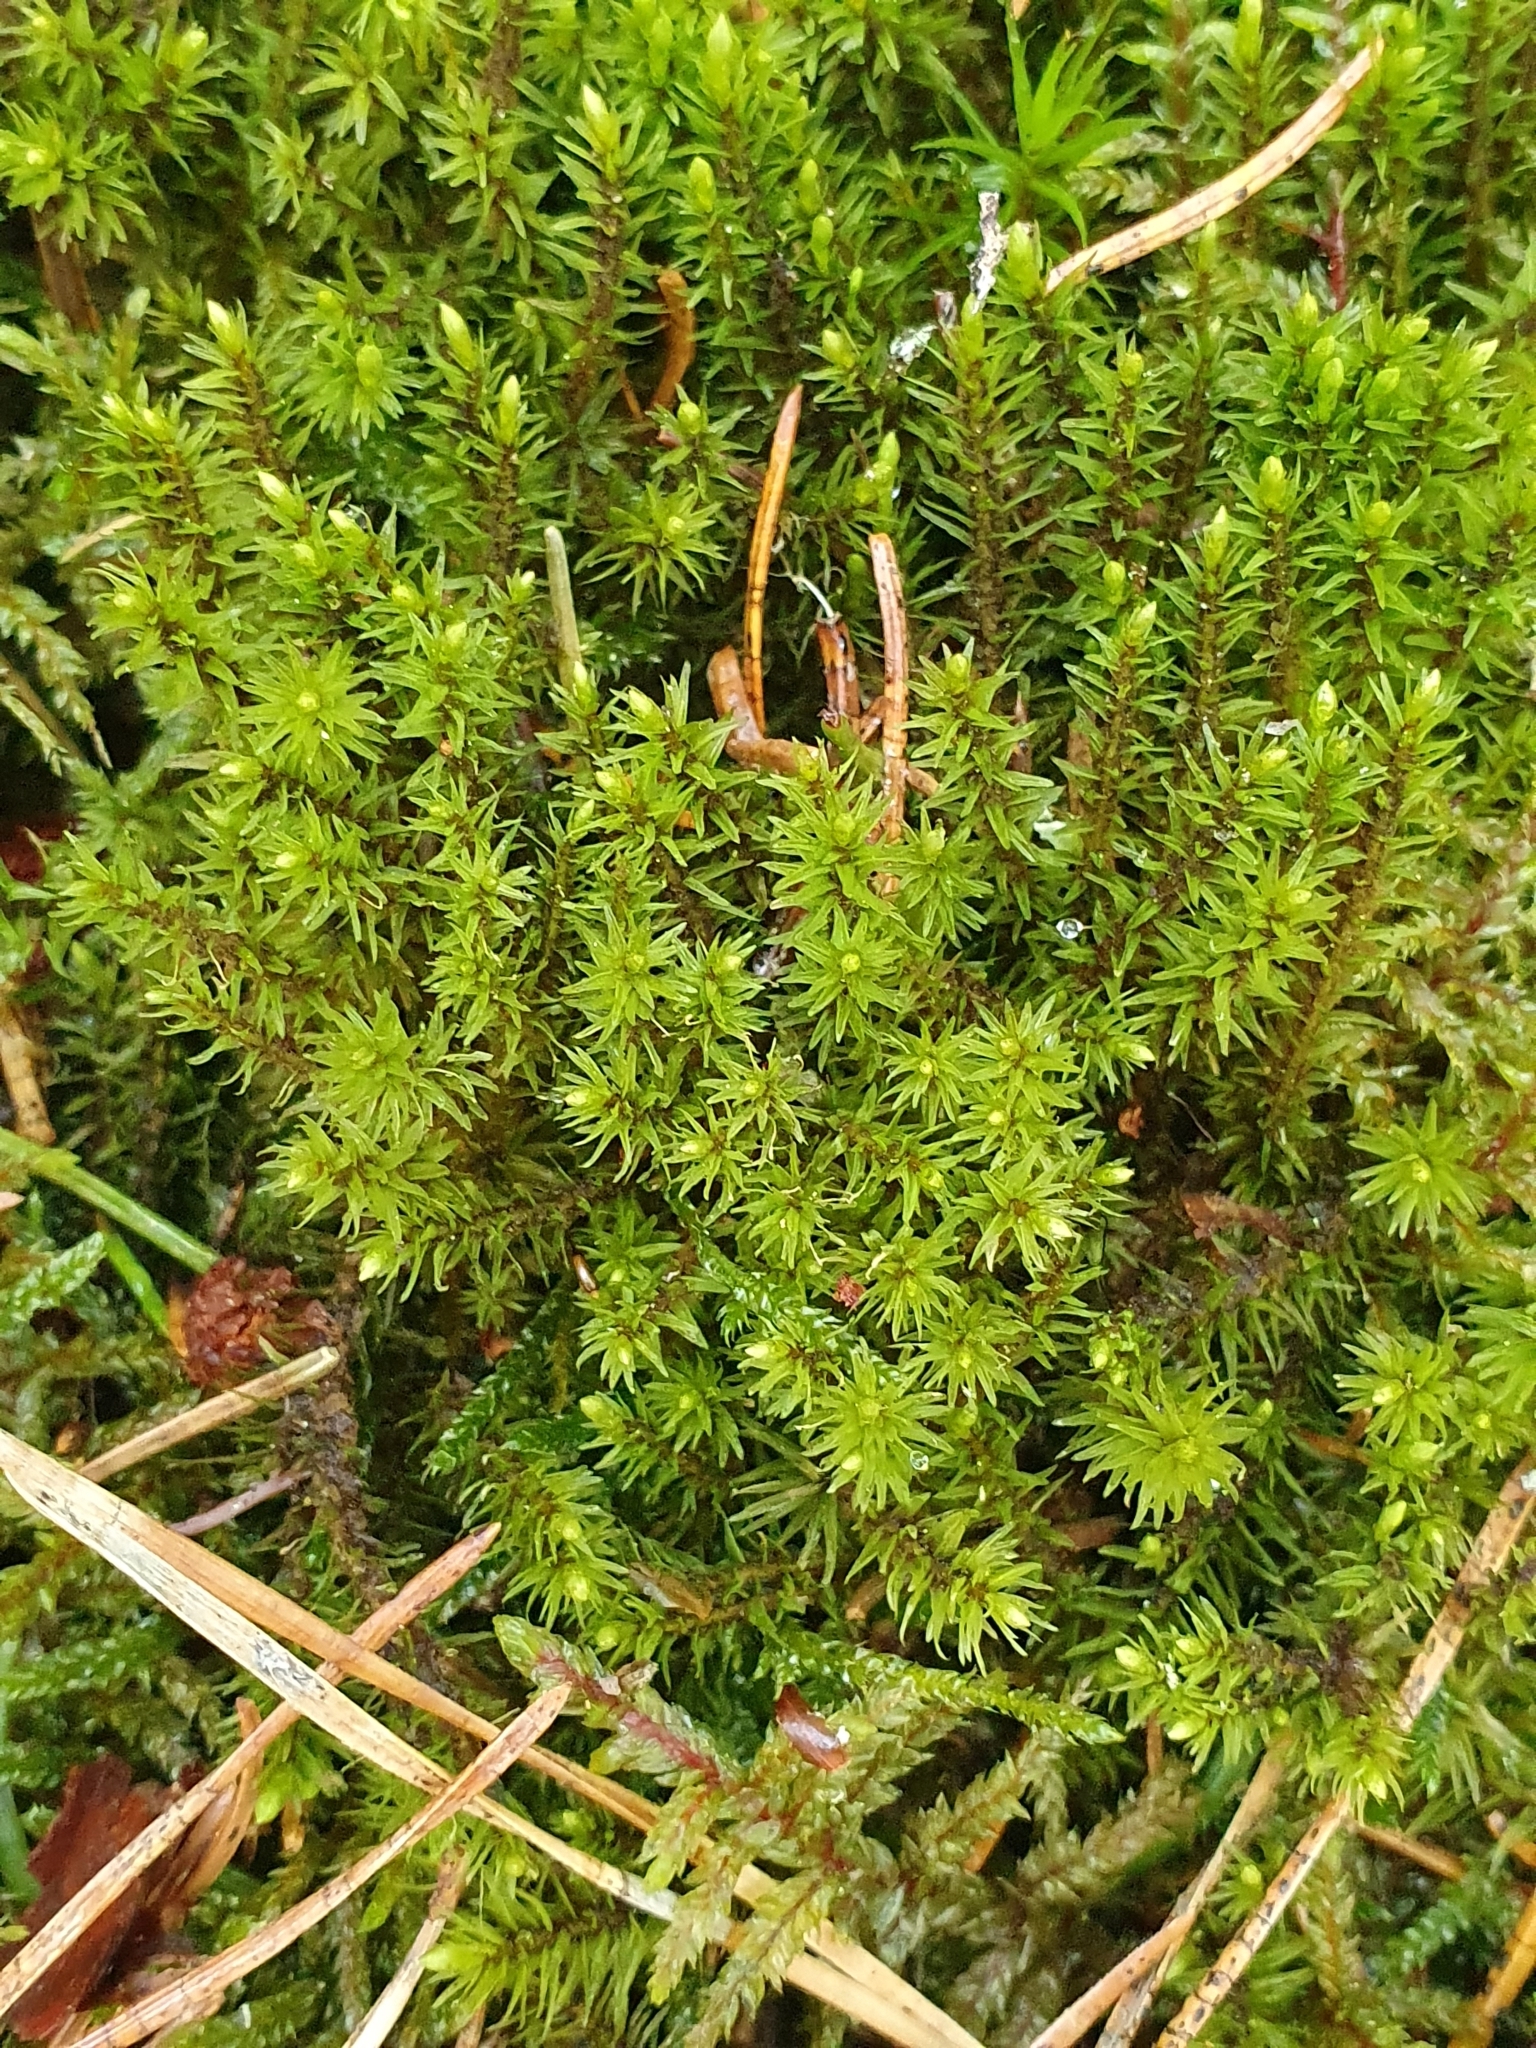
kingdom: Plantae
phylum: Bryophyta
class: Bryopsida
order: Aulacomniales
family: Aulacomniaceae
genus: Aulacomnium
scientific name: Aulacomnium palustre
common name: Bog groove-moss
